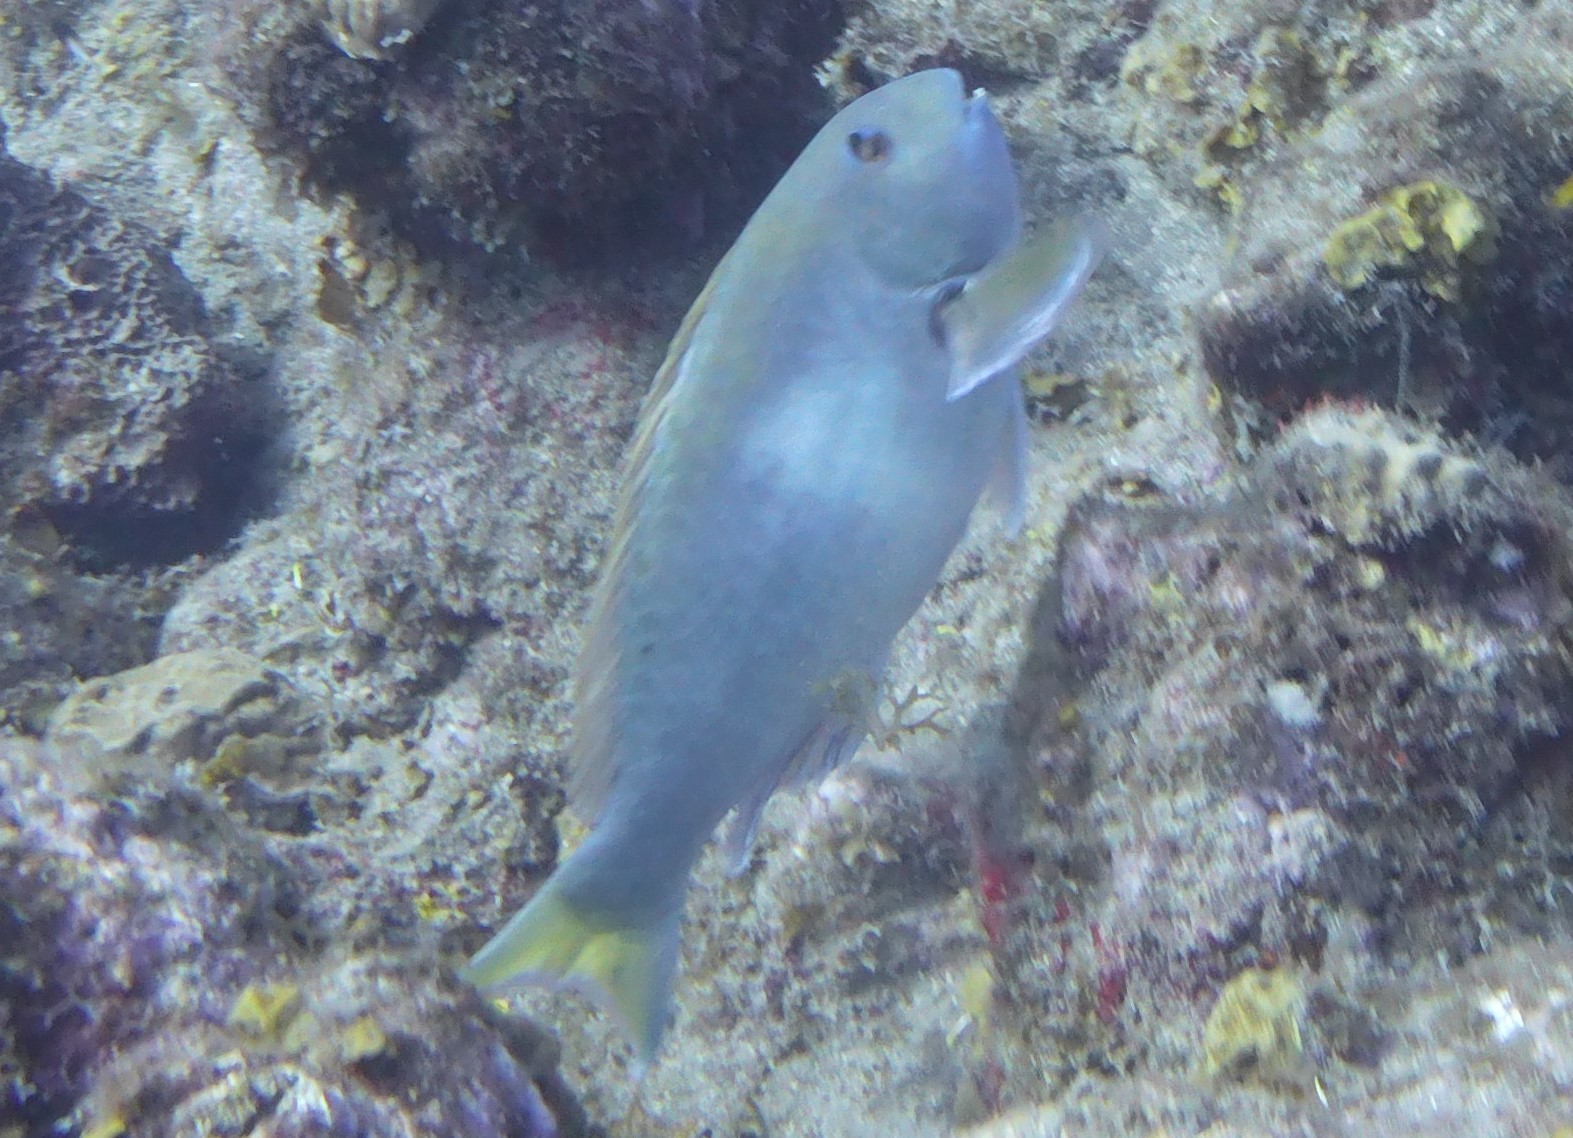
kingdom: Animalia
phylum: Chordata
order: Perciformes
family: Scaridae
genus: Sparisoma
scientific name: Sparisoma rubripinne
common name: Redfin parrotfish
